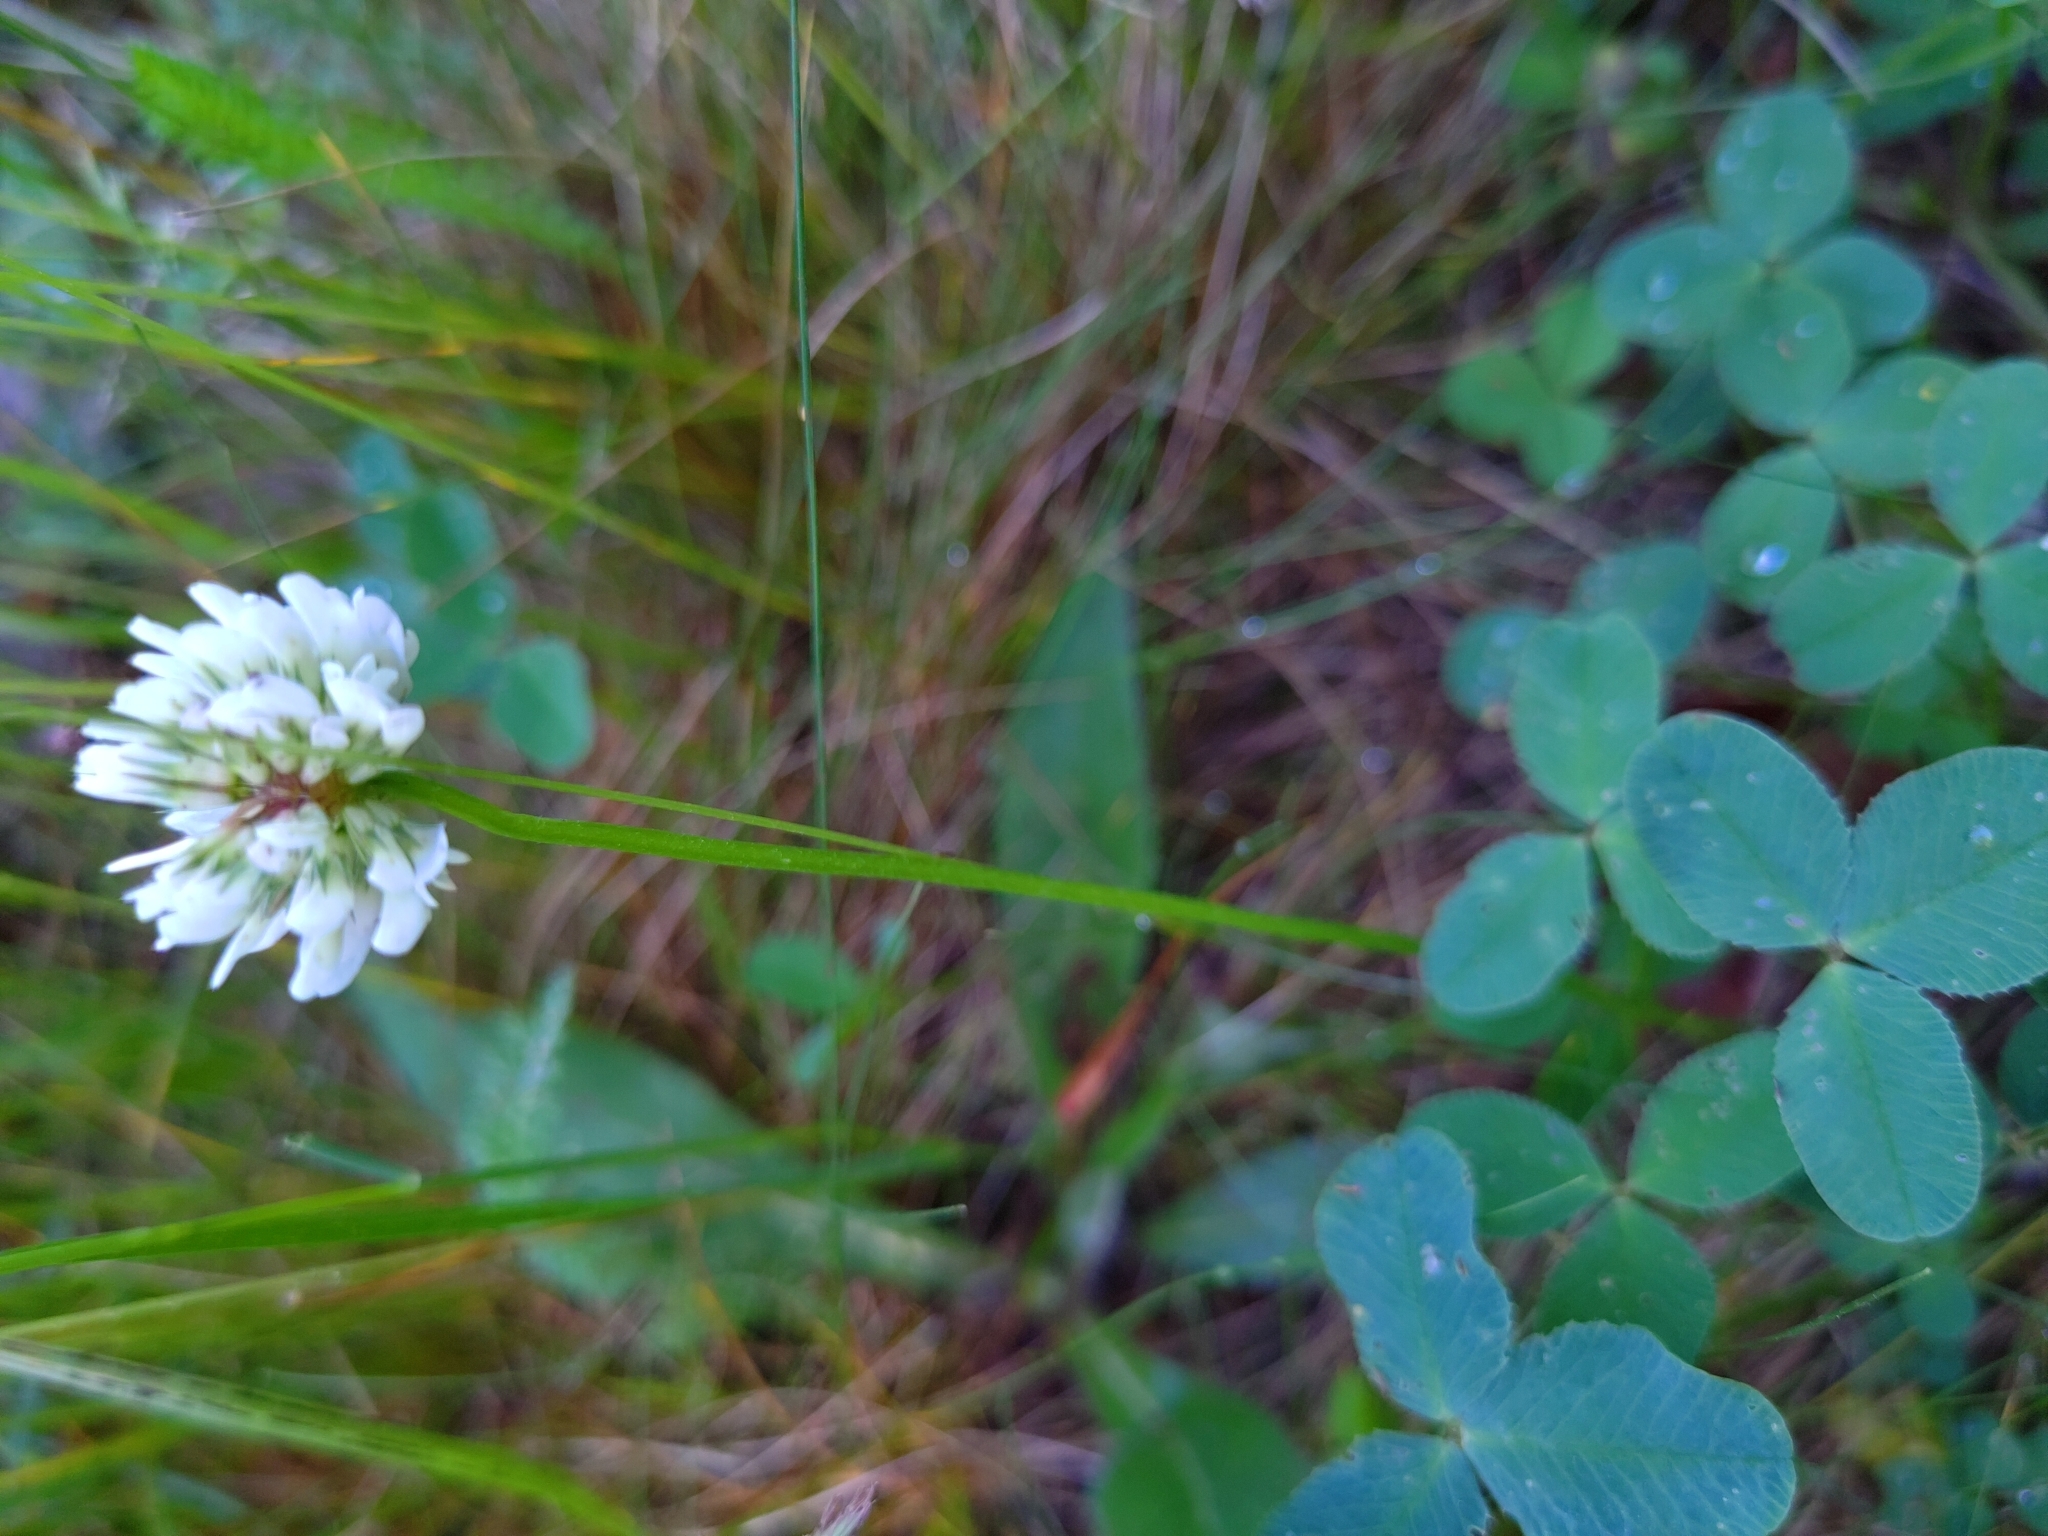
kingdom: Plantae
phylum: Tracheophyta
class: Magnoliopsida
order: Fabales
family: Fabaceae
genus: Trifolium
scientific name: Trifolium repens
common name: White clover
